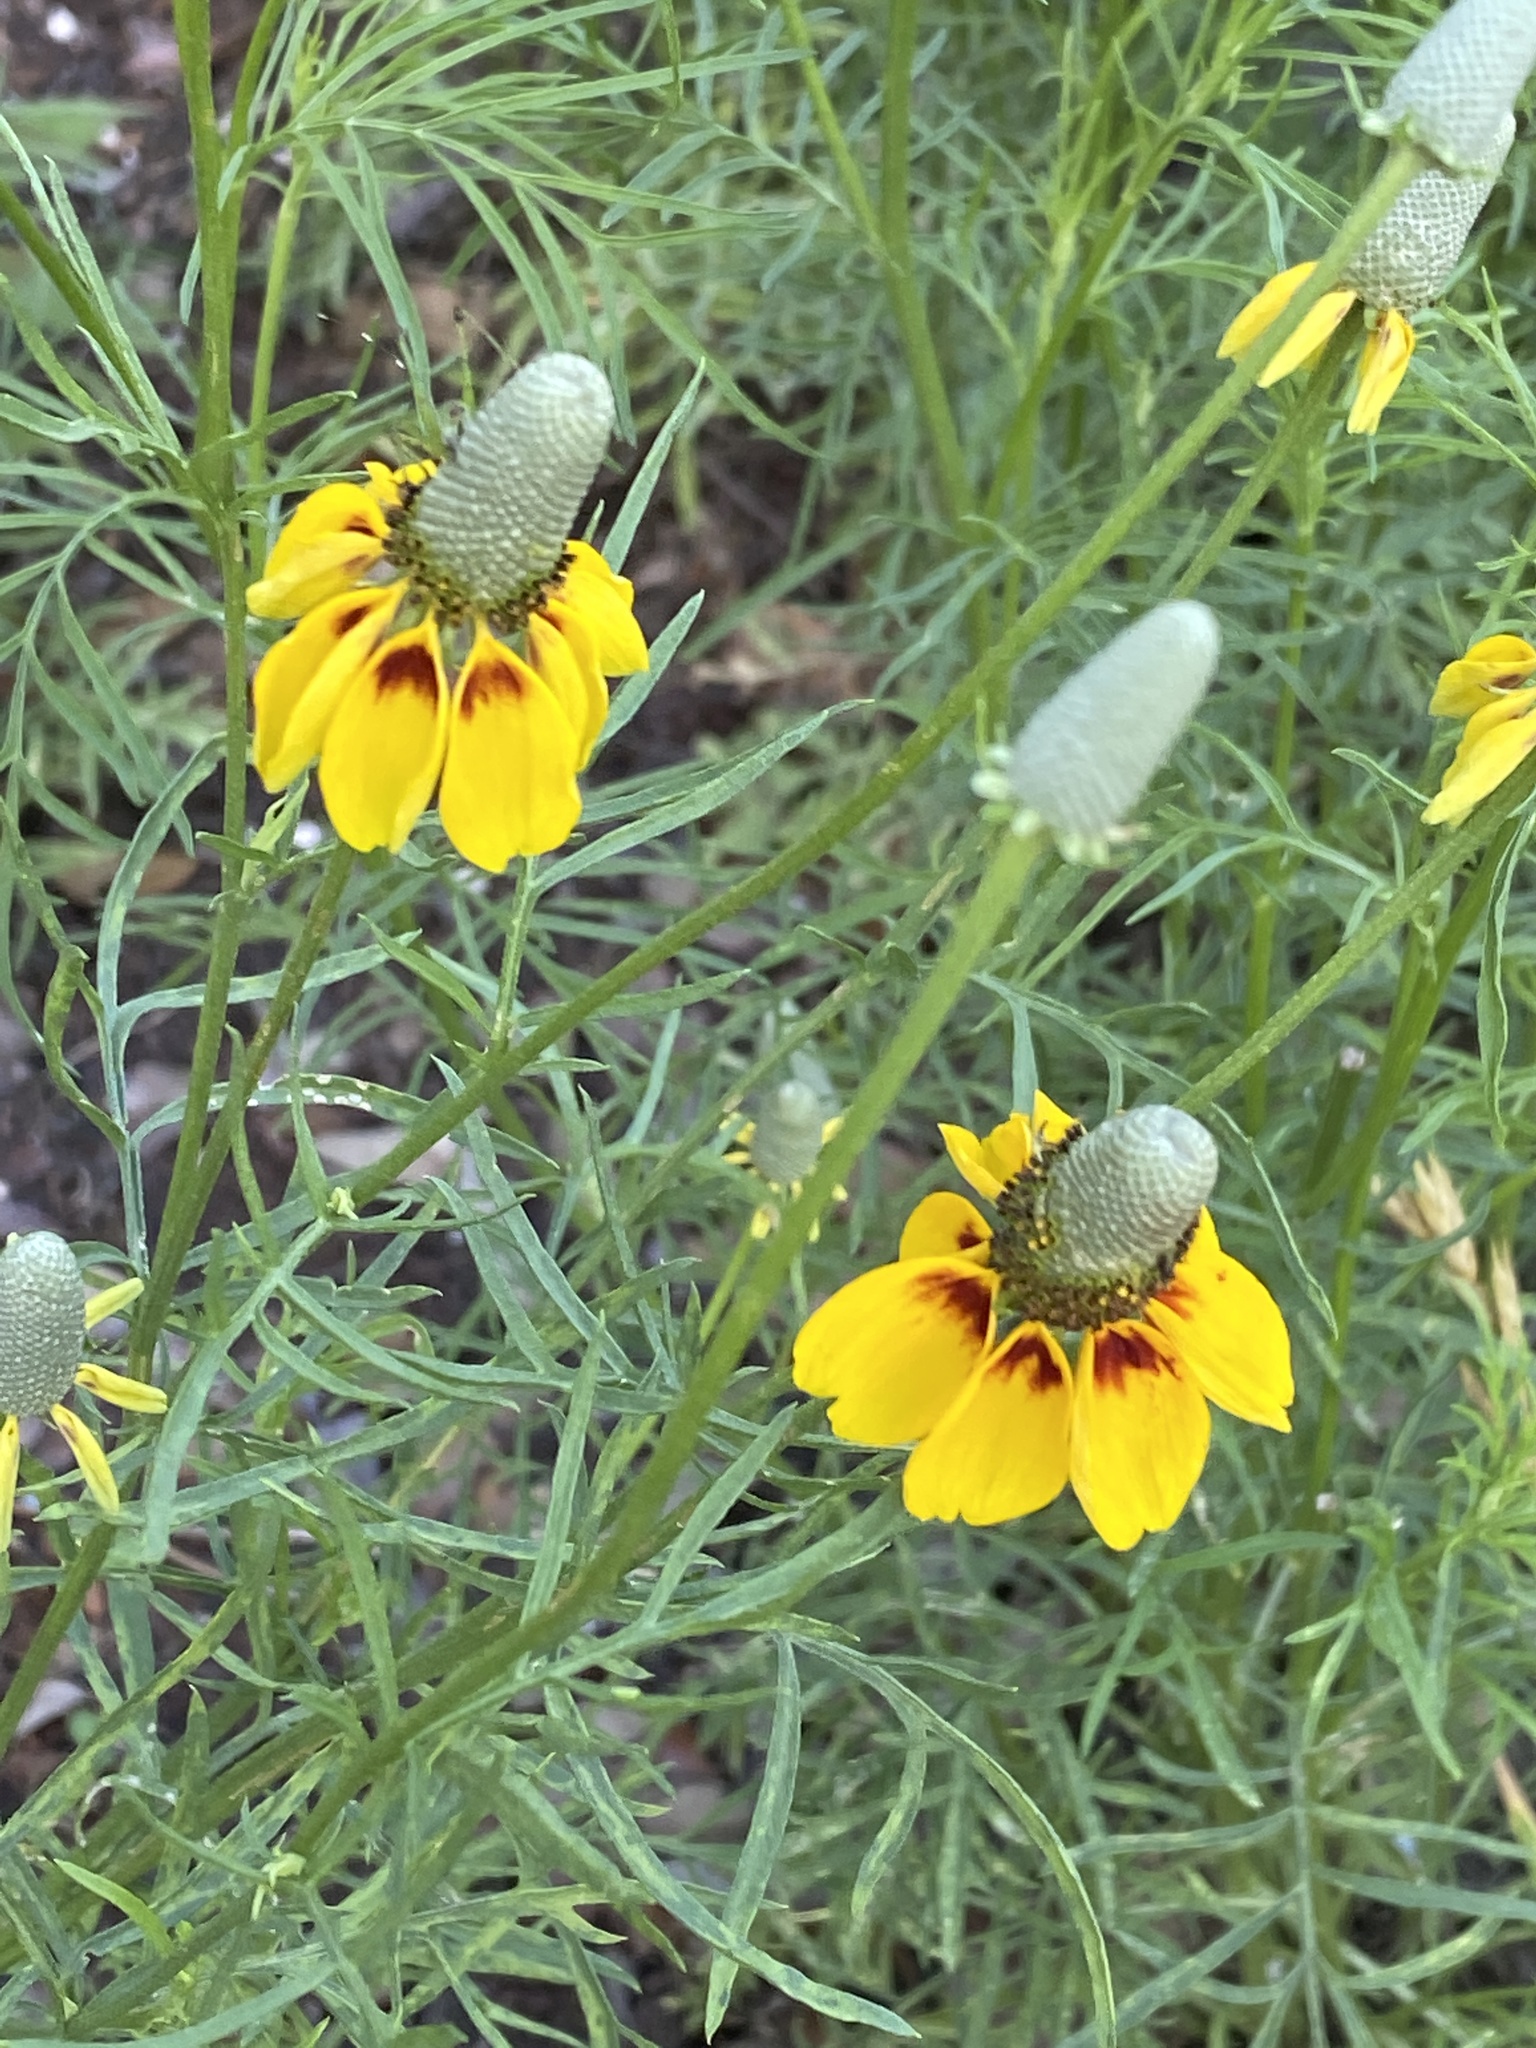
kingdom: Plantae
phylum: Tracheophyta
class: Magnoliopsida
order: Asterales
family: Asteraceae
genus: Ratibida
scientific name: Ratibida columnifera
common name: Prairie coneflower
